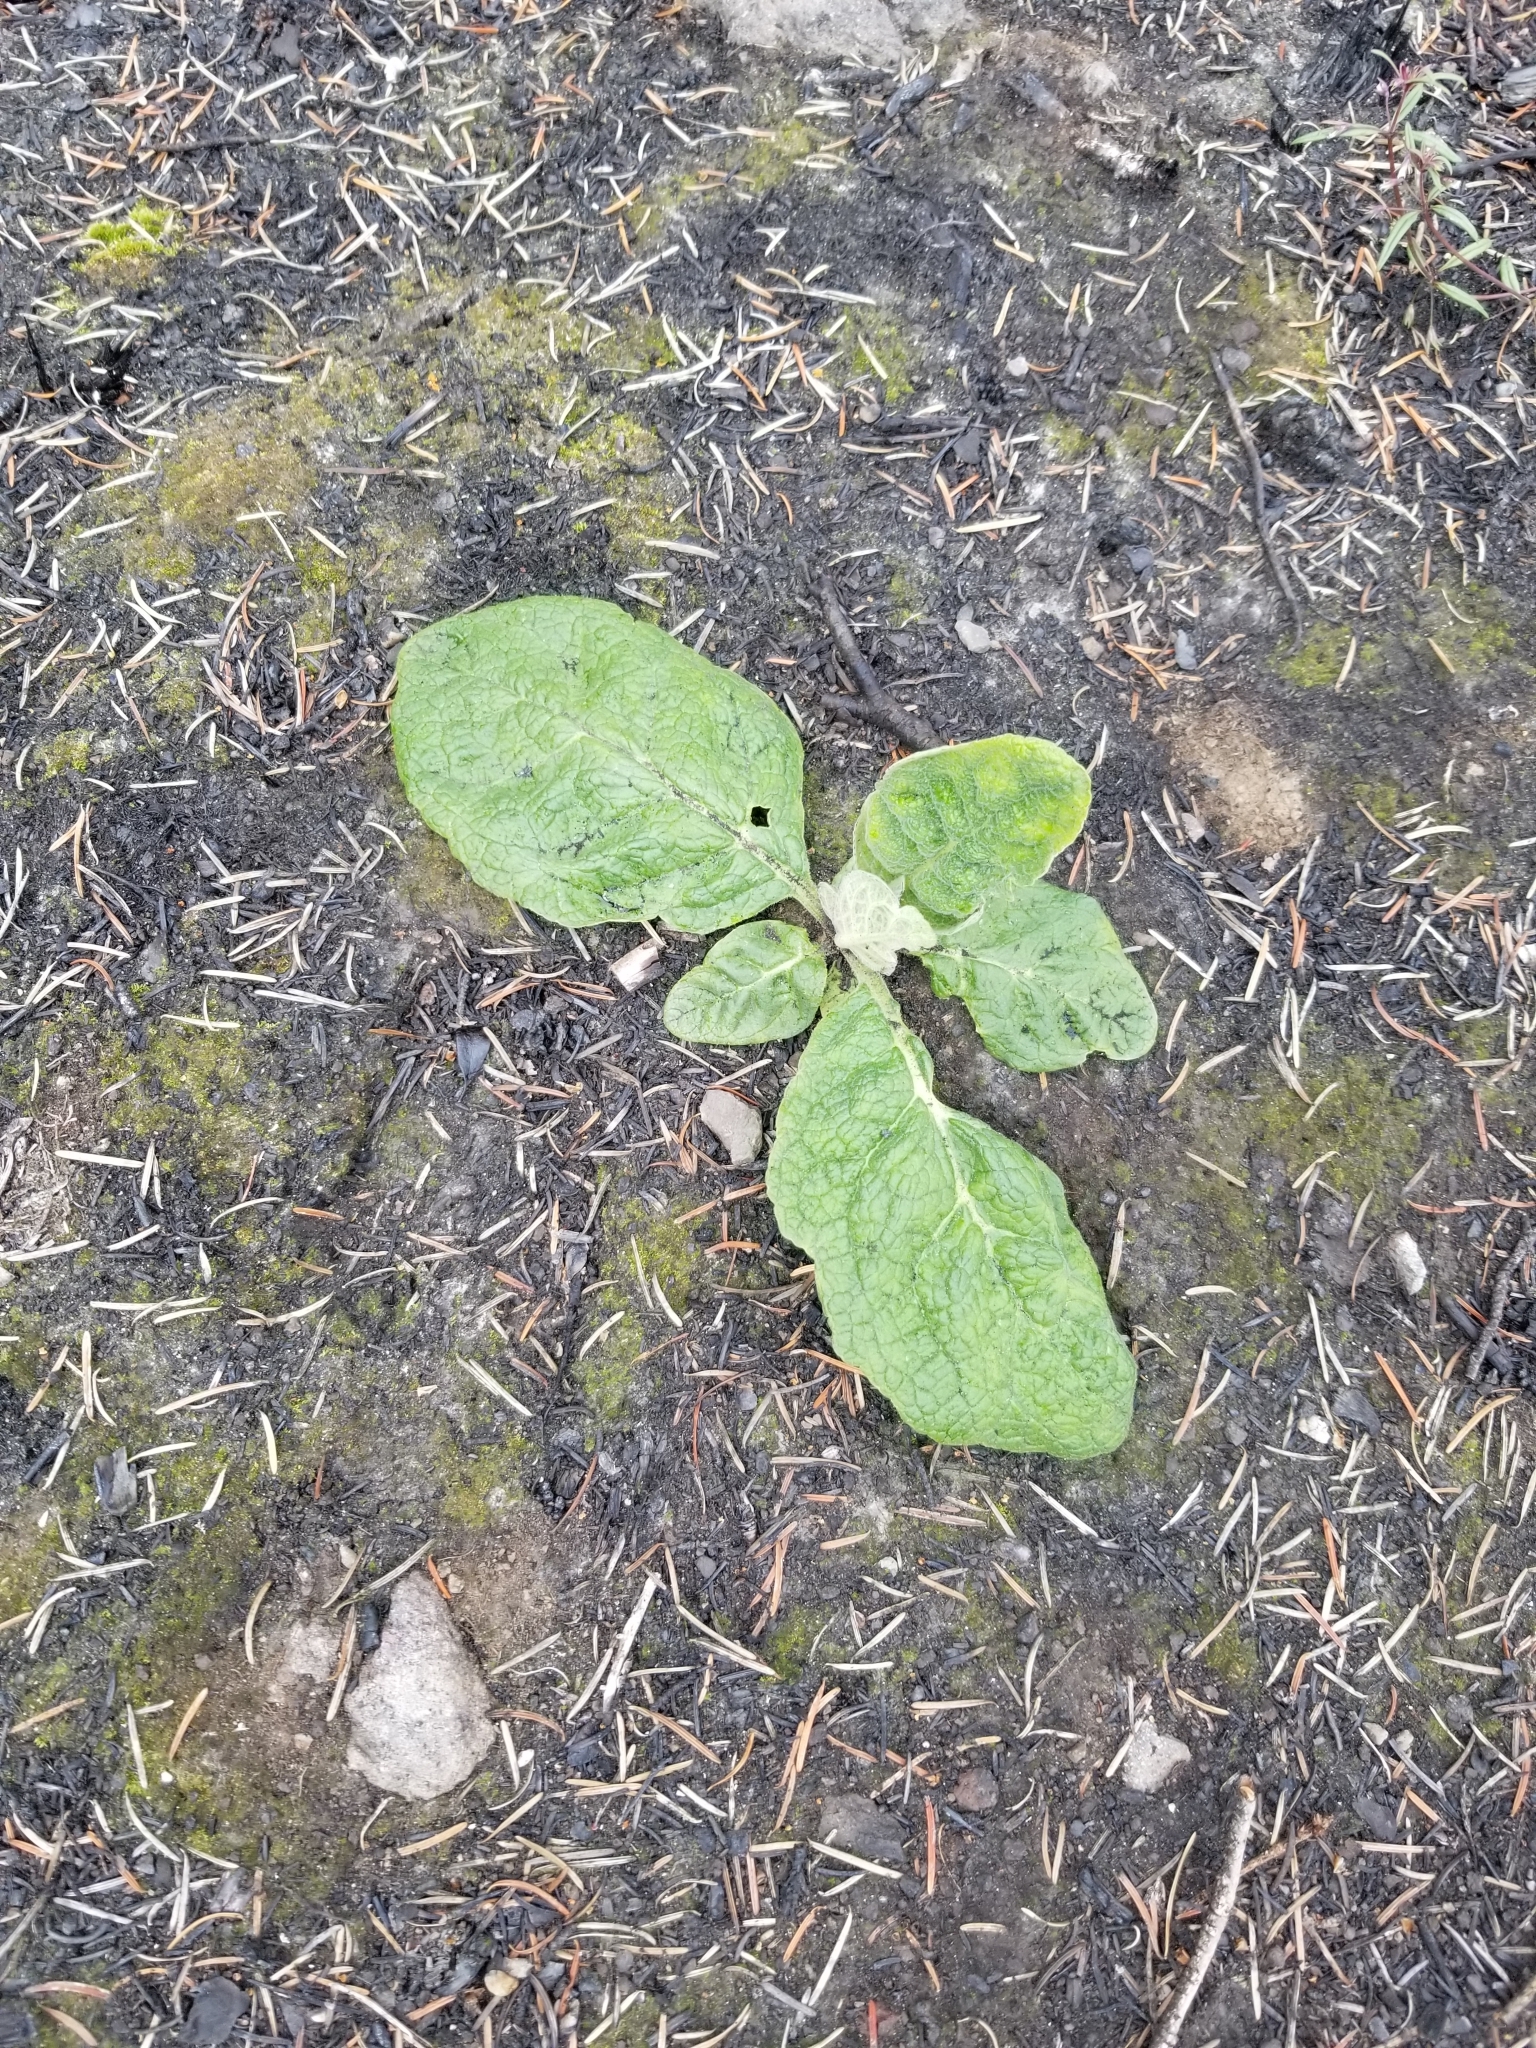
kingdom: Plantae
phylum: Tracheophyta
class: Magnoliopsida
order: Lamiales
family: Scrophulariaceae
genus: Verbascum
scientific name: Verbascum thapsus
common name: Common mullein
